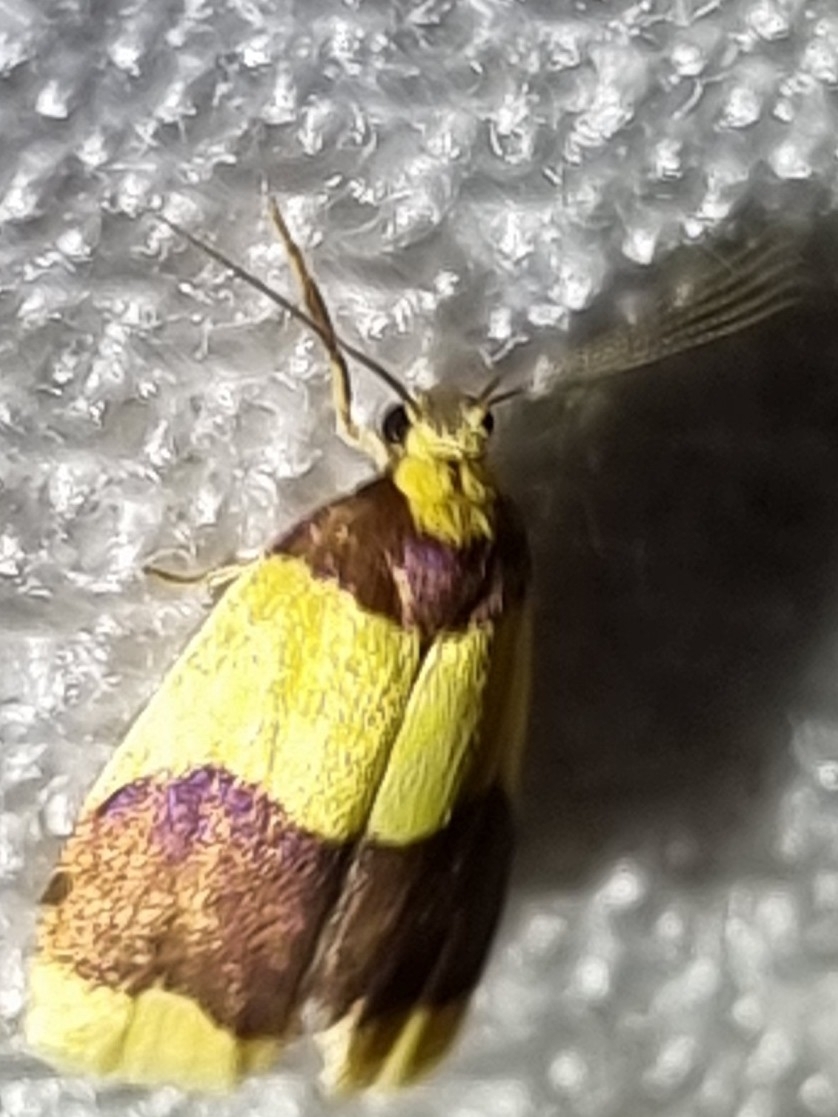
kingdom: Animalia
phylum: Arthropoda
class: Insecta
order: Lepidoptera
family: Erebidae
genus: Heterallactis
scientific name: Heterallactis microchrysa
